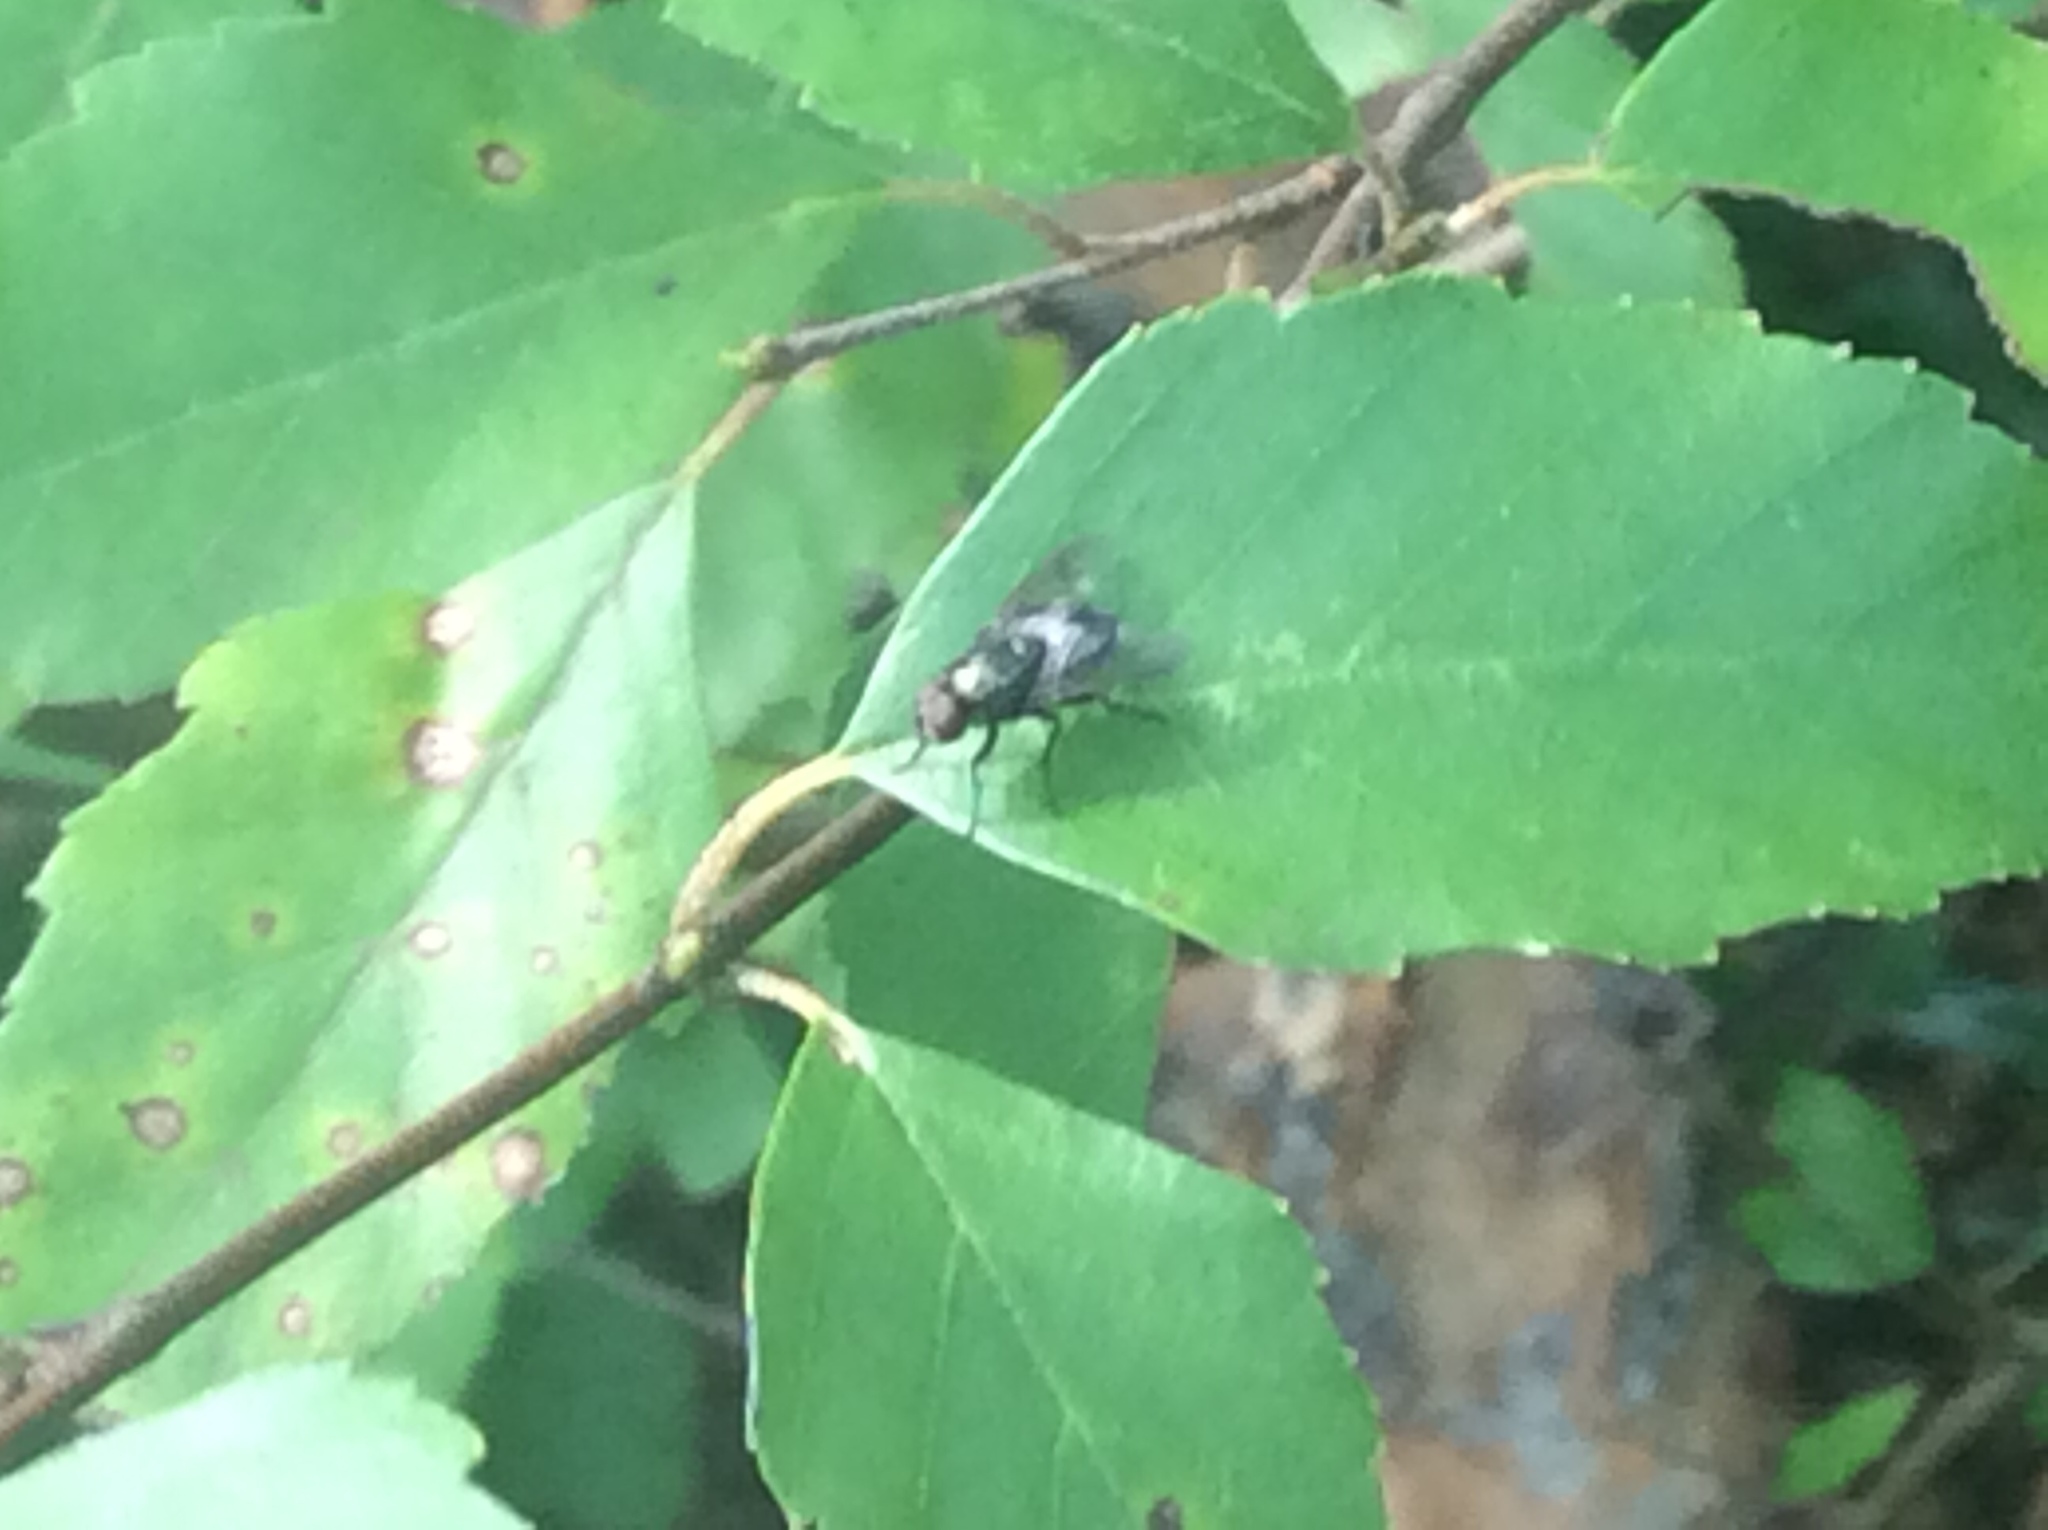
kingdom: Animalia
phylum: Arthropoda
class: Insecta
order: Diptera
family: Calliphoridae
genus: Phormia
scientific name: Phormia regina
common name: Black blow fly
